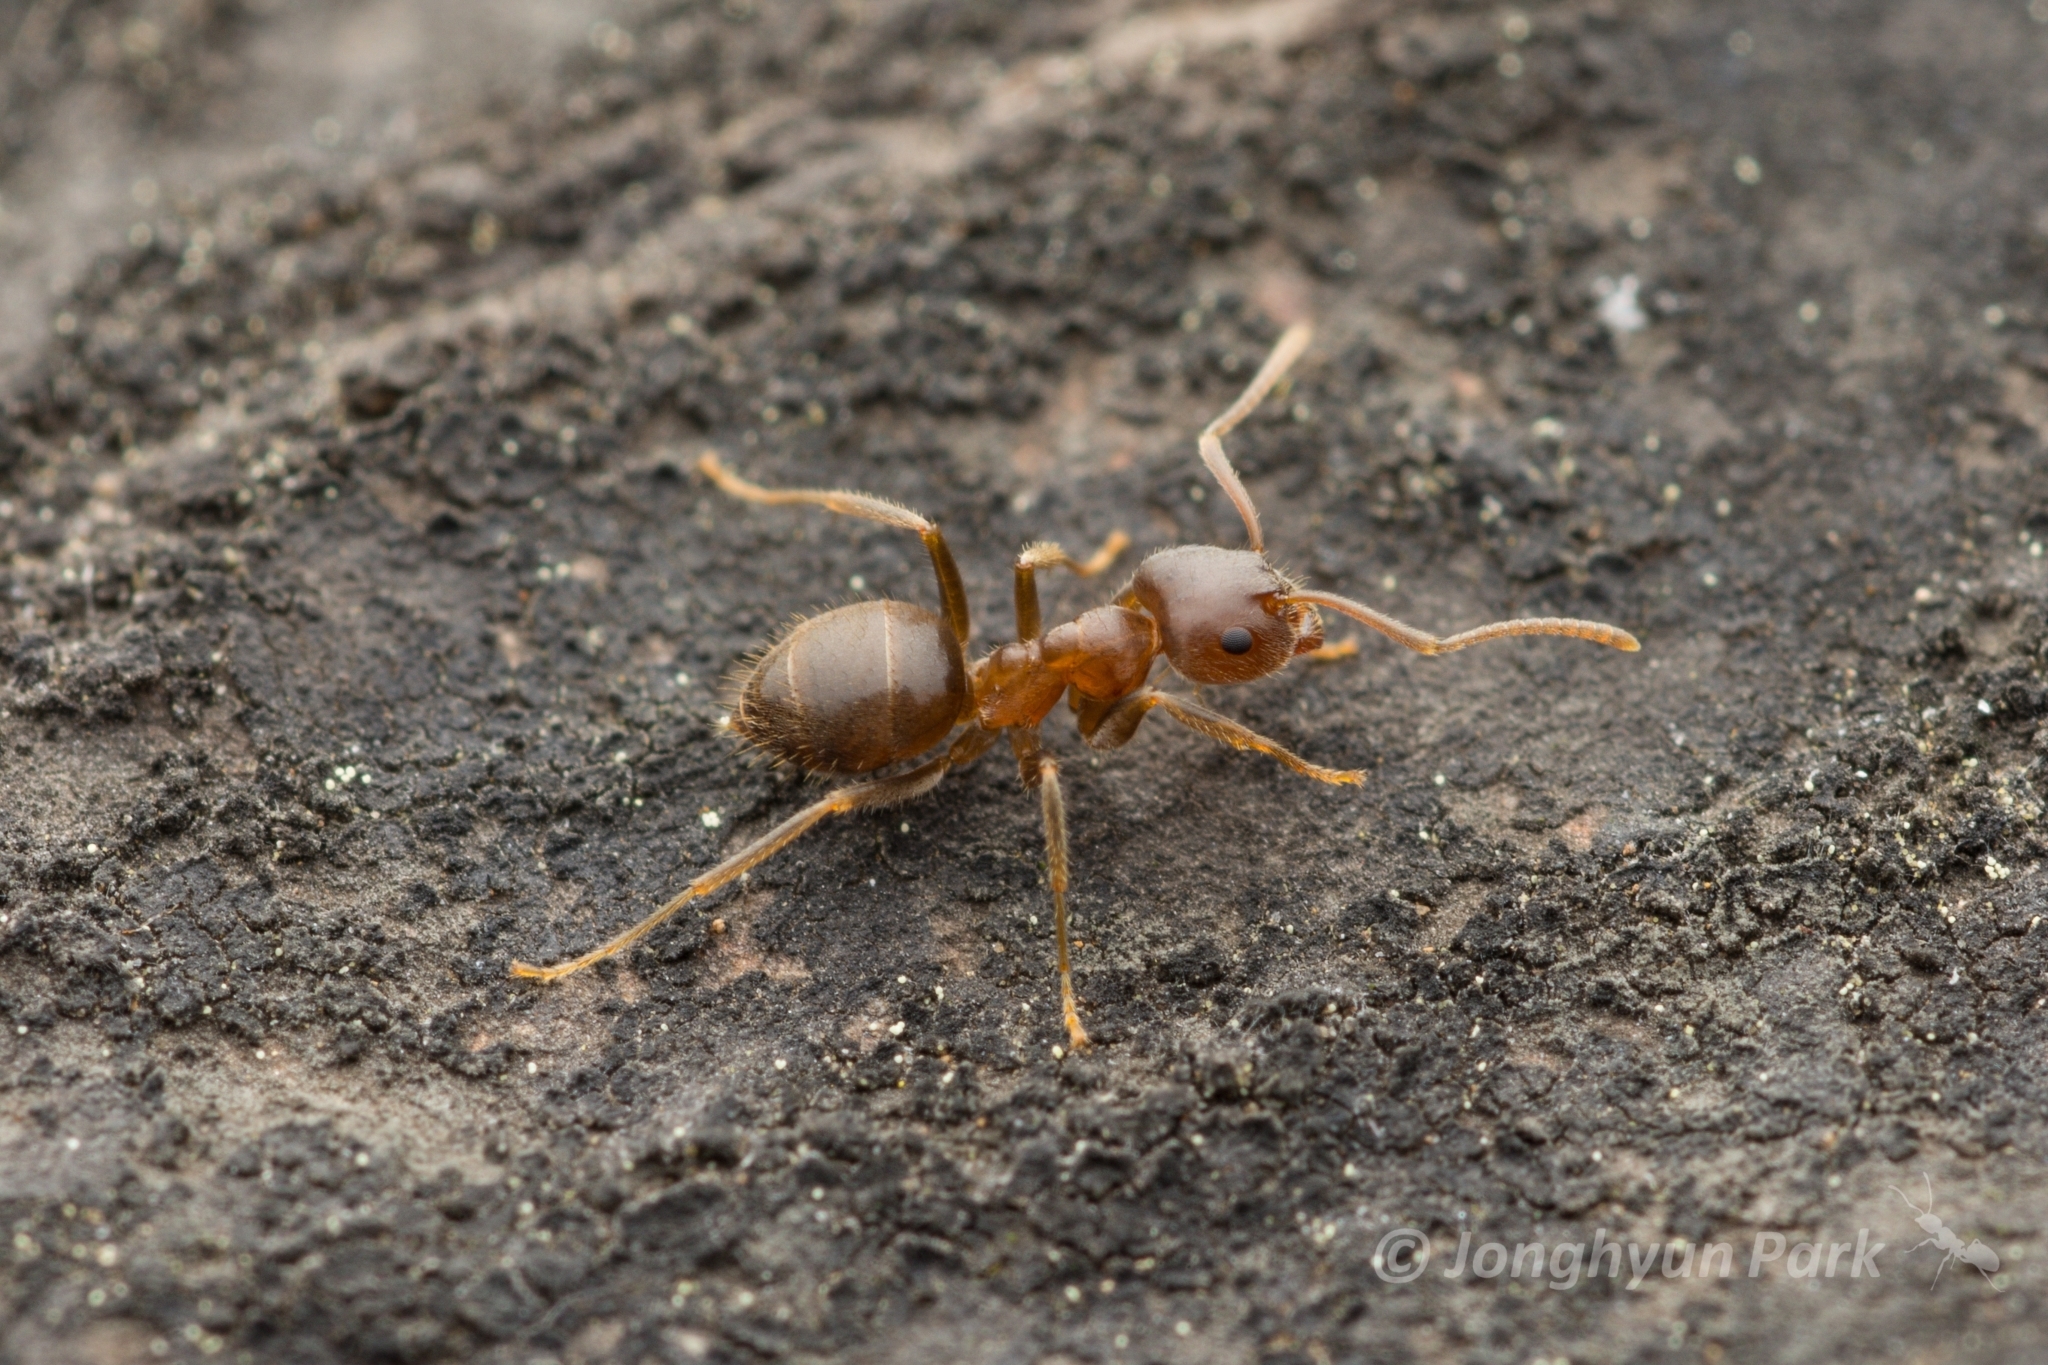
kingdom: Animalia
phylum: Arthropoda
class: Insecta
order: Hymenoptera
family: Formicidae
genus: Lasius
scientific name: Lasius hayashi
